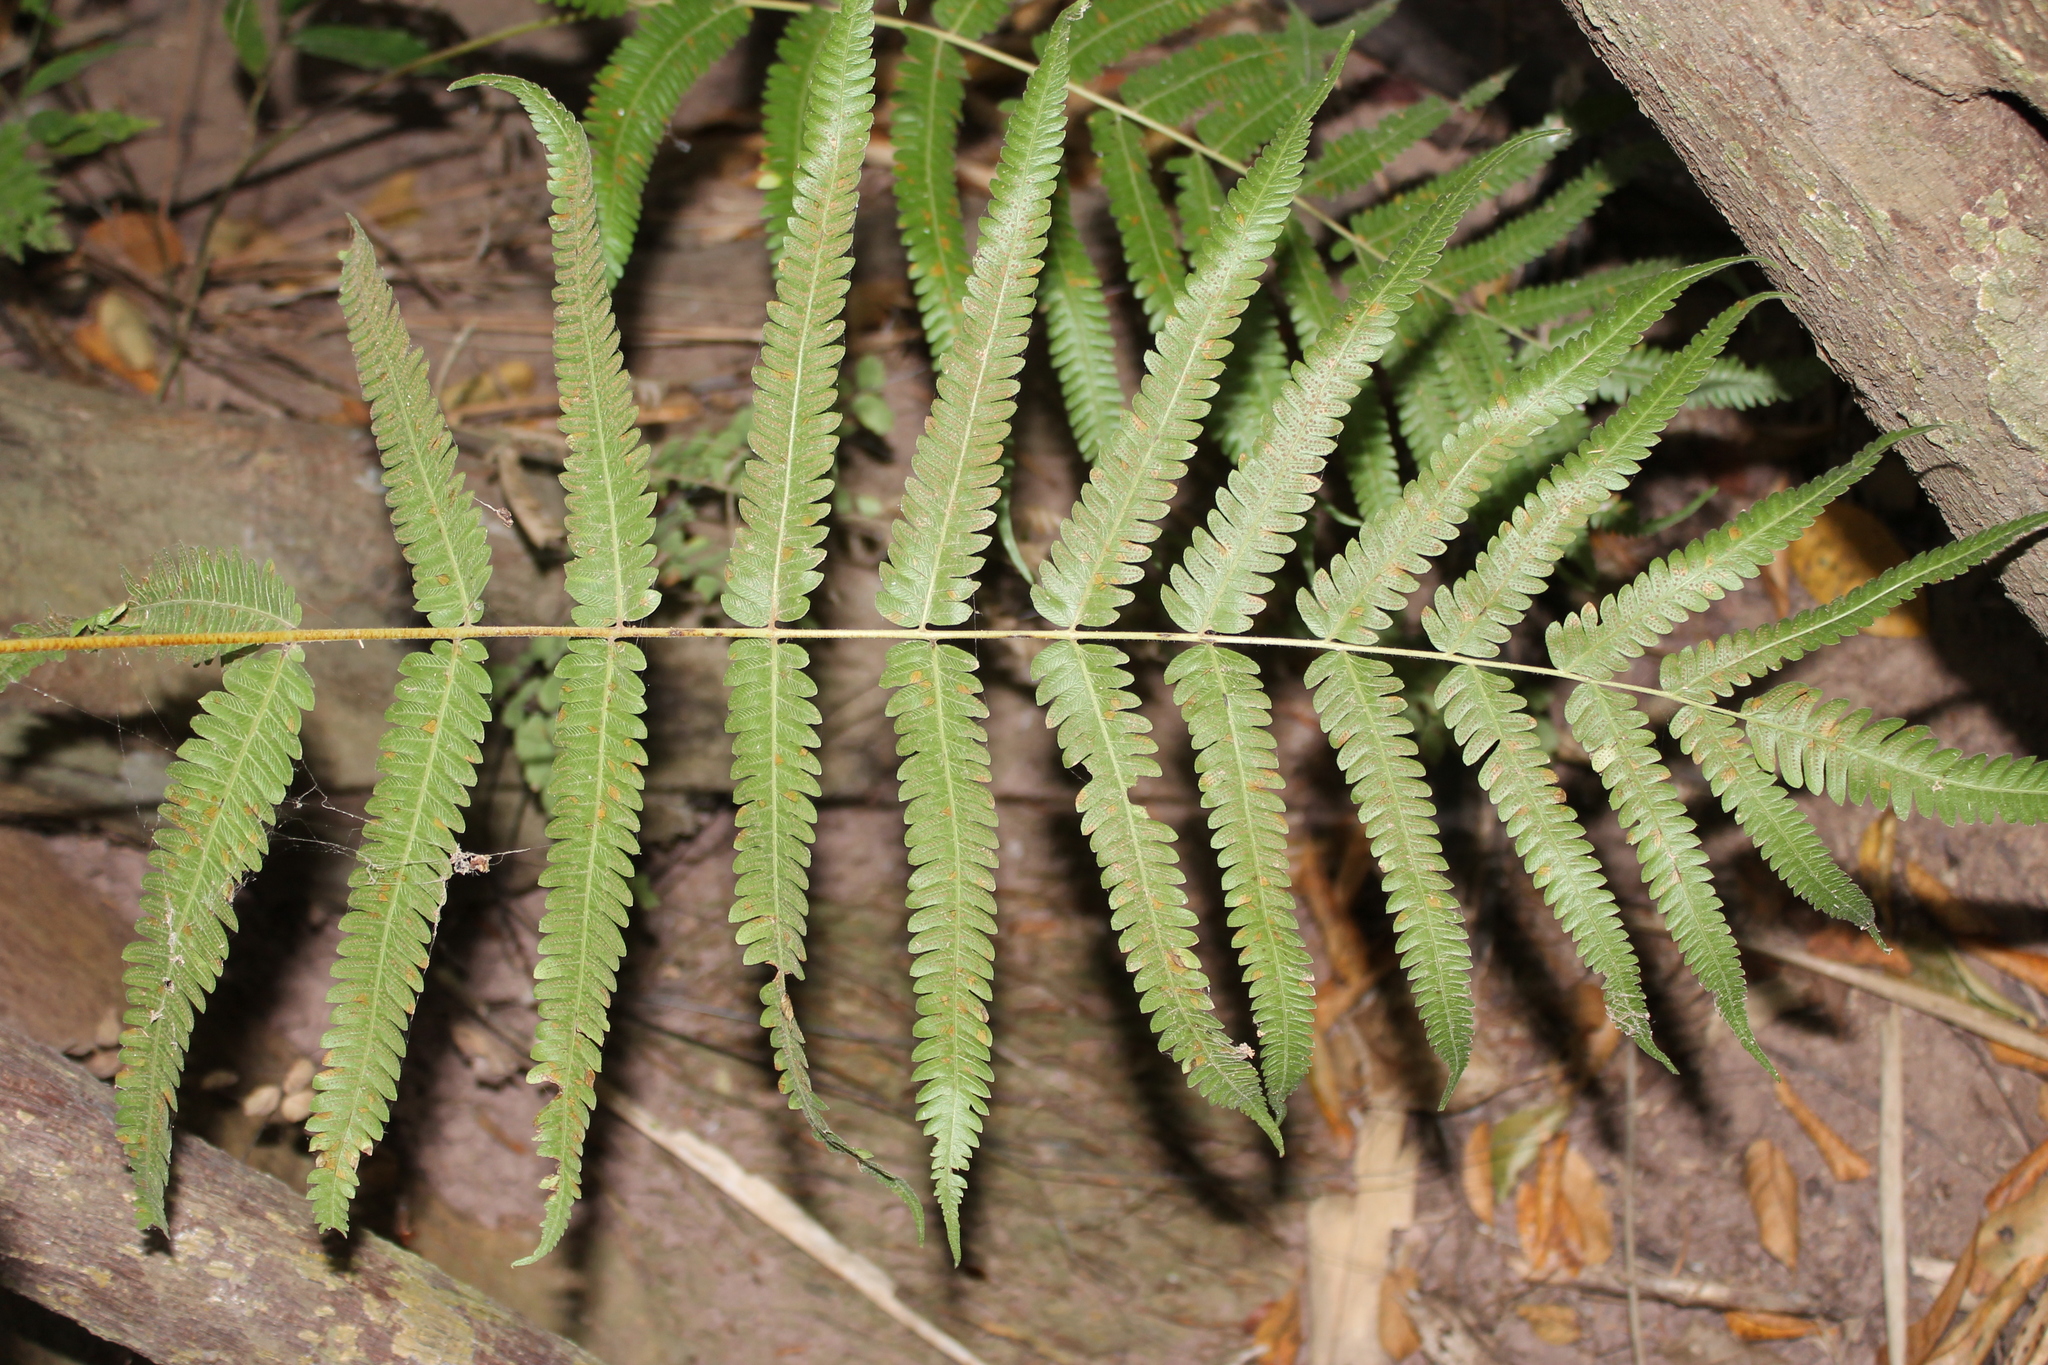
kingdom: Plantae
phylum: Tracheophyta
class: Polypodiopsida
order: Polypodiales
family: Thelypteridaceae
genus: Amauropelta
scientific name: Amauropelta concinna
